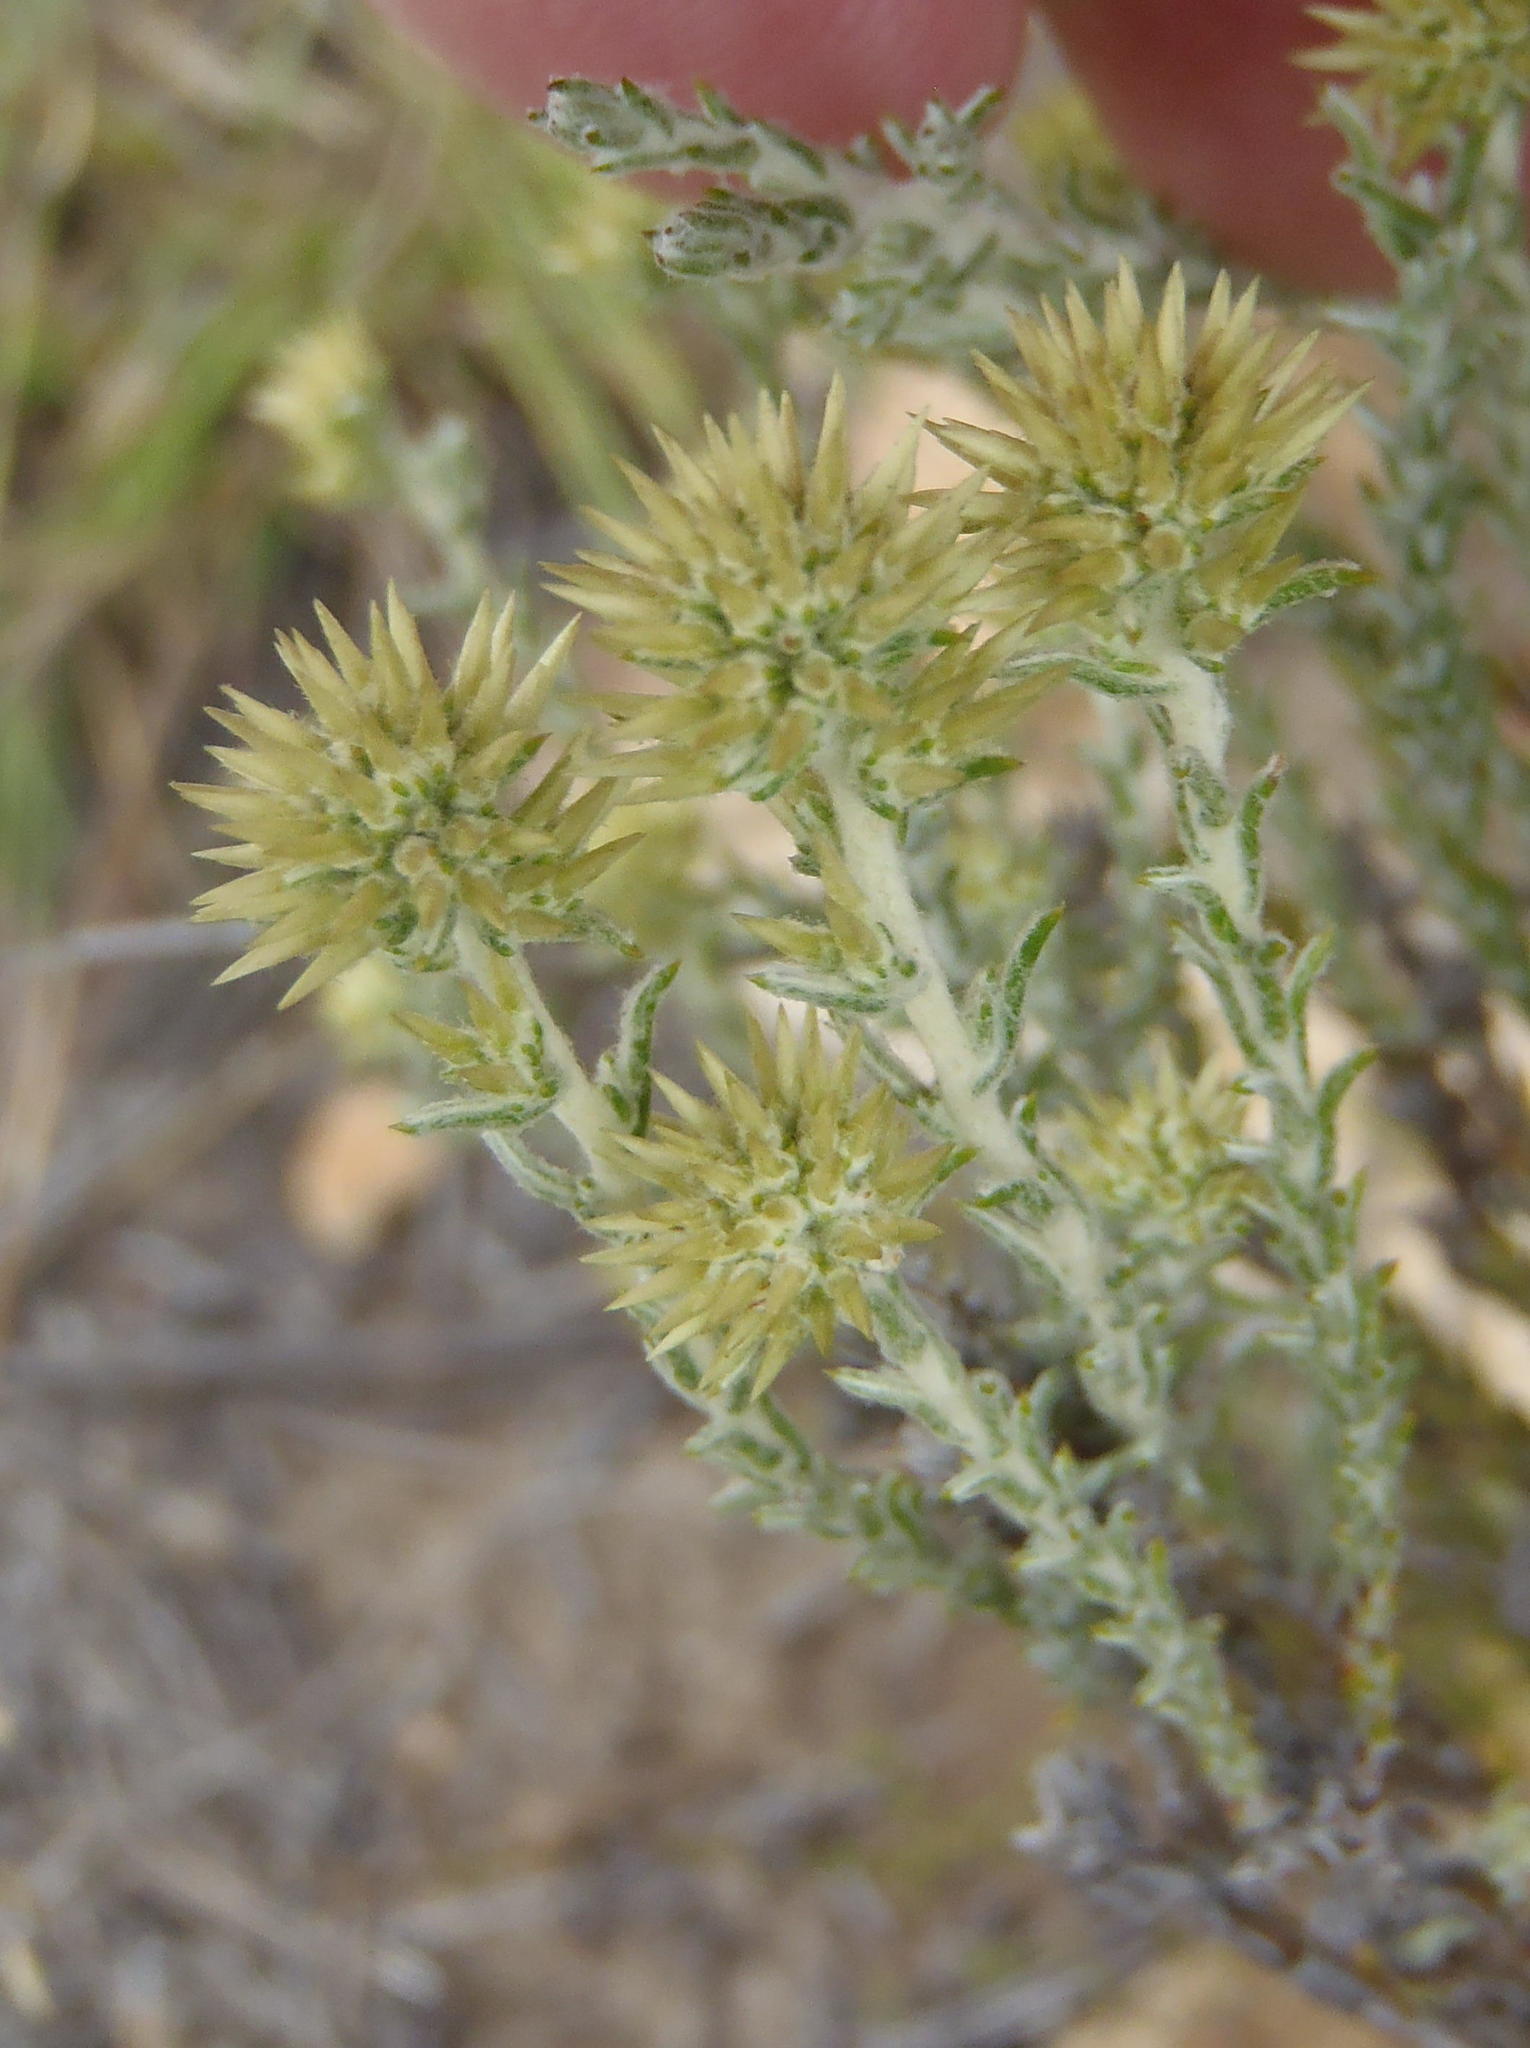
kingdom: Plantae
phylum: Tracheophyta
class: Magnoliopsida
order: Asterales
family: Asteraceae
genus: Seriphium
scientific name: Seriphium spirale
